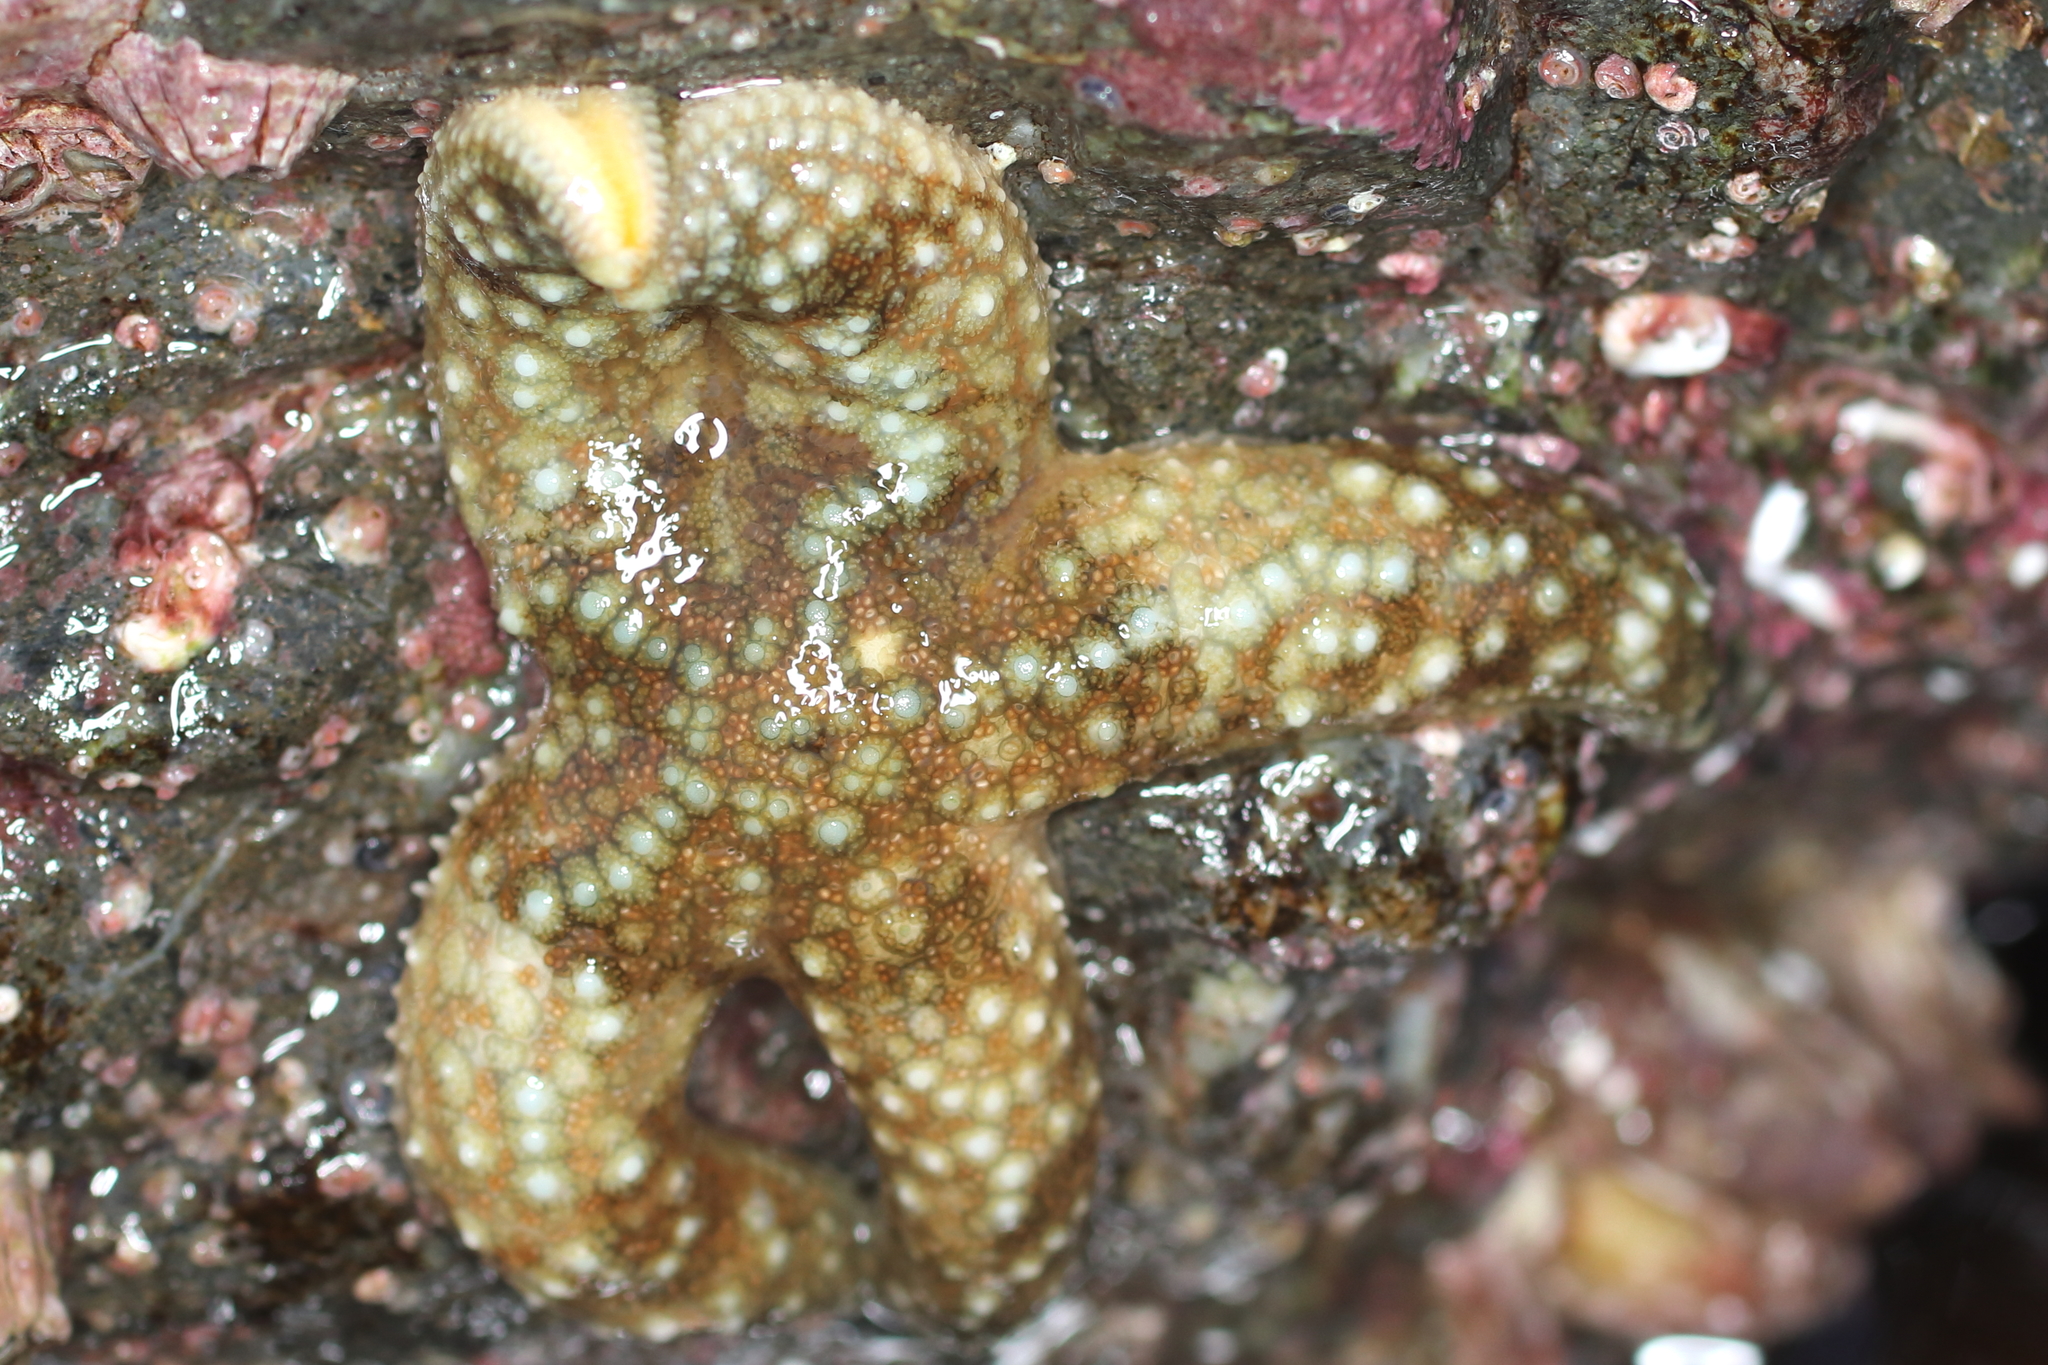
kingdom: Animalia
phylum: Echinodermata
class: Asteroidea
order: Forcipulatida
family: Asteriidae
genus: Evasterias
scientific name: Evasterias troschelii
